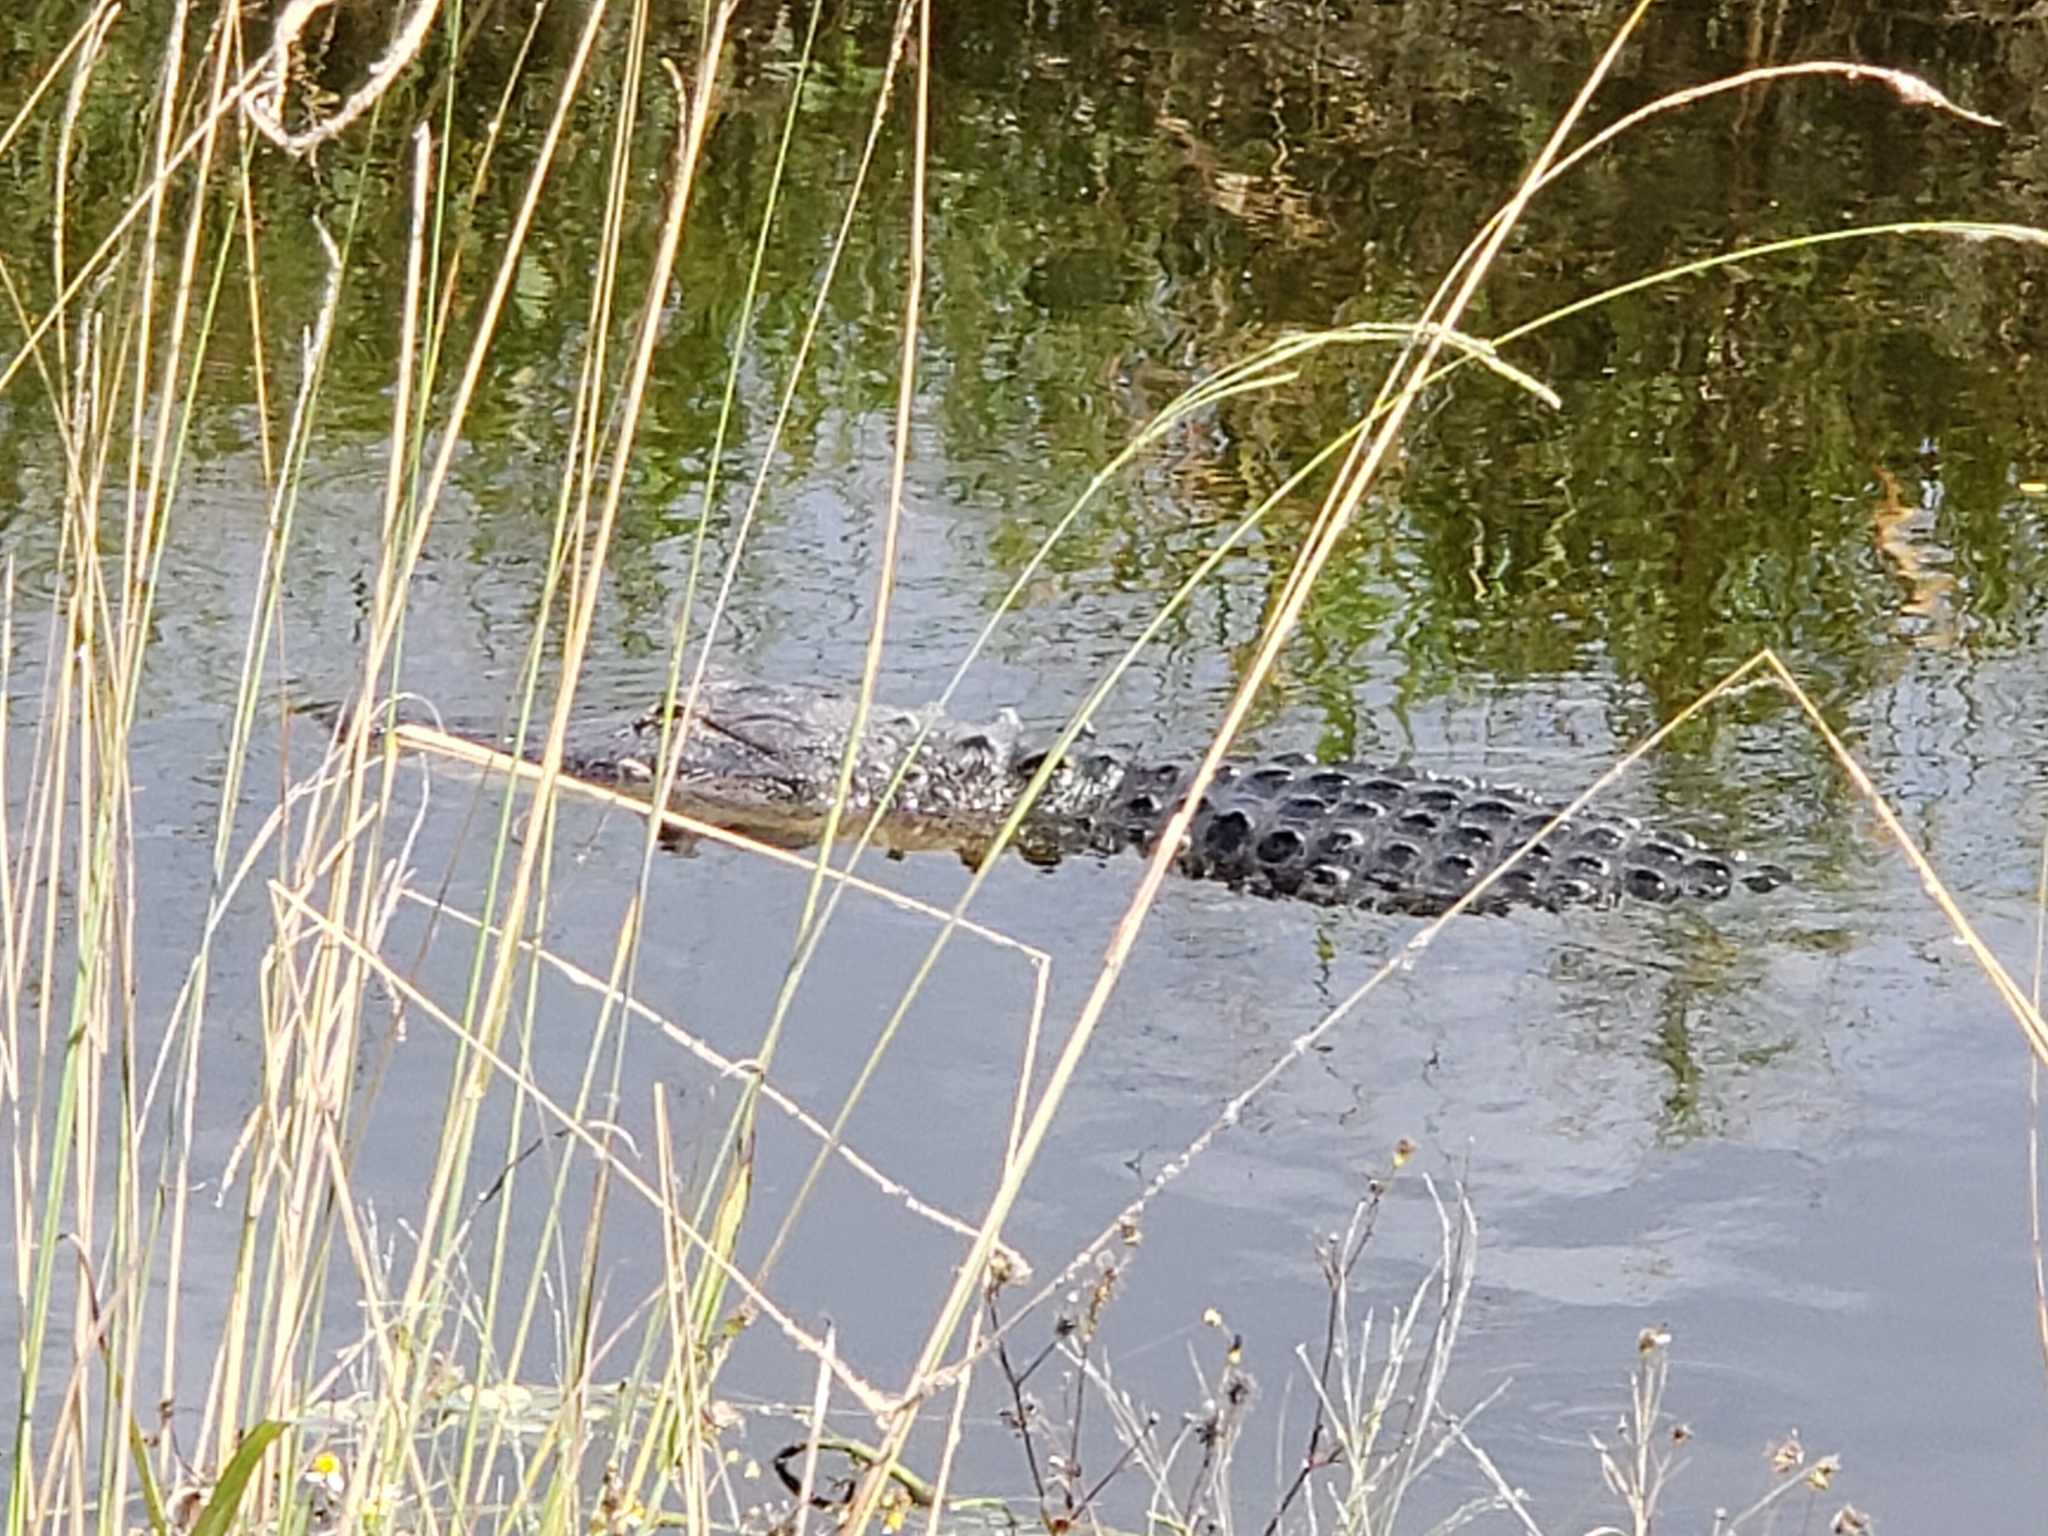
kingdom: Animalia
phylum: Chordata
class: Crocodylia
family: Alligatoridae
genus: Alligator
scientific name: Alligator mississippiensis
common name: American alligator
